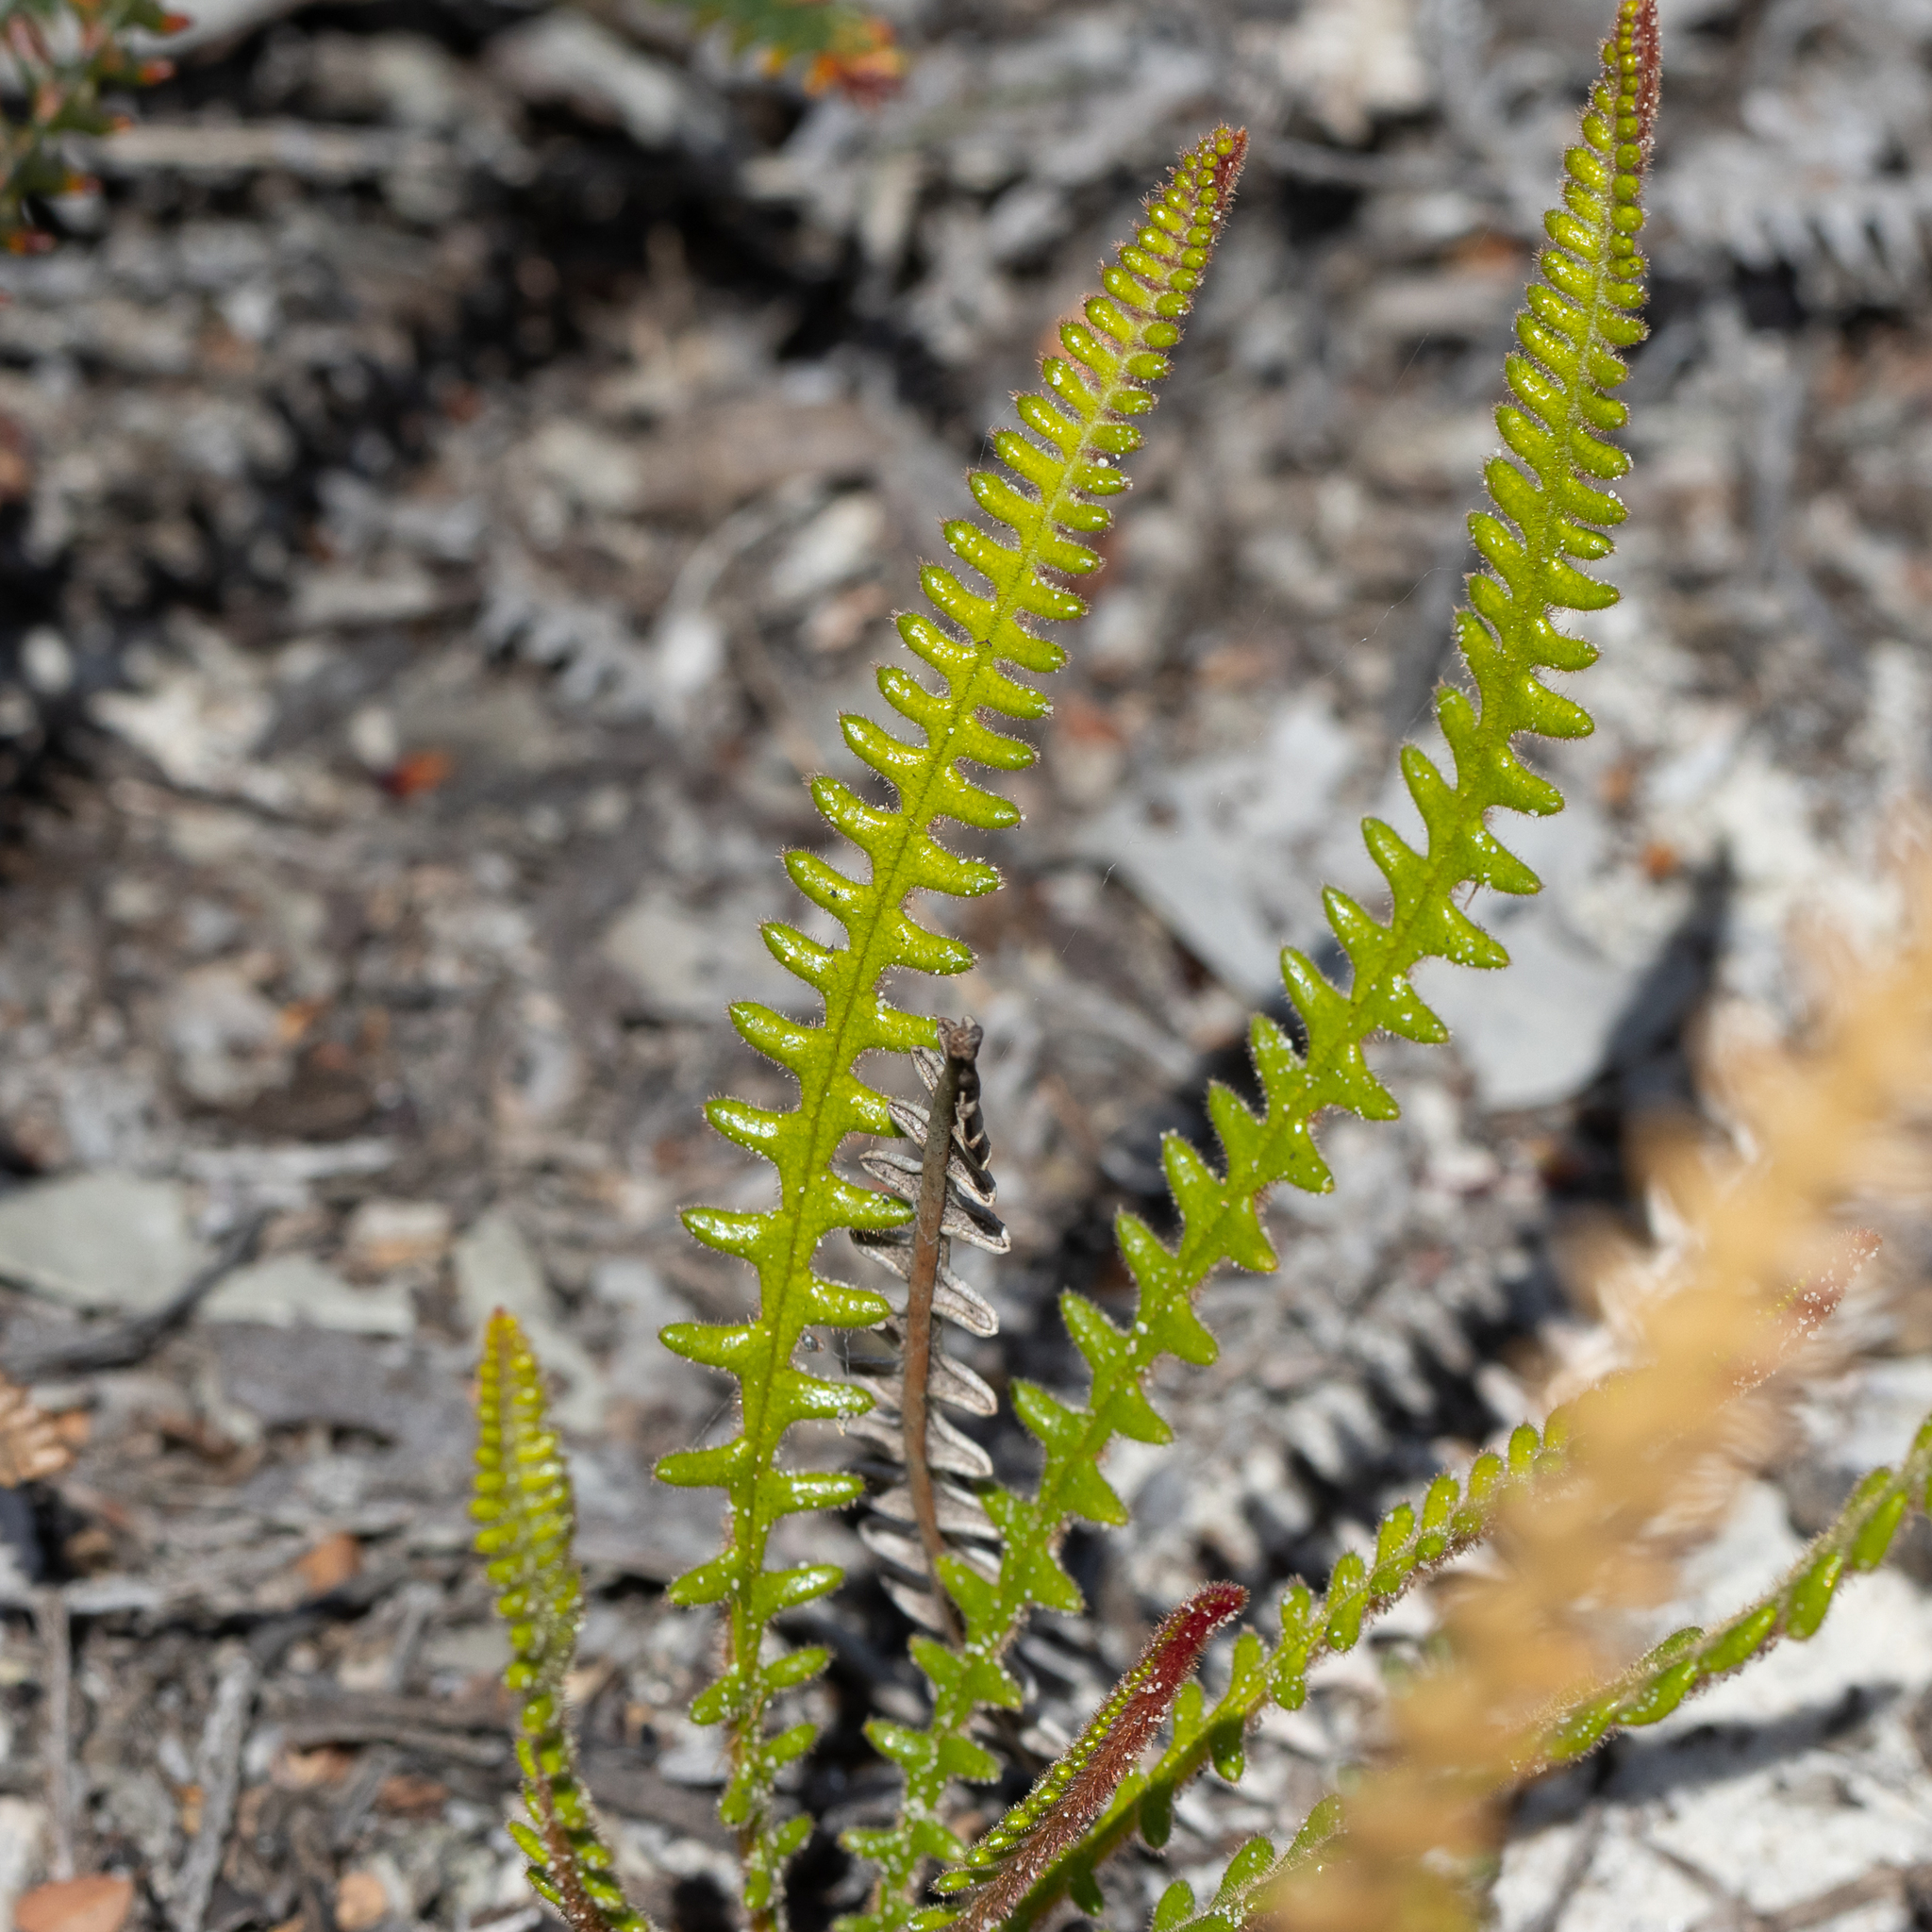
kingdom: Plantae
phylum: Tracheophyta
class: Magnoliopsida
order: Proteales
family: Proteaceae
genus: Banksia
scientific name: Banksia obtusa
